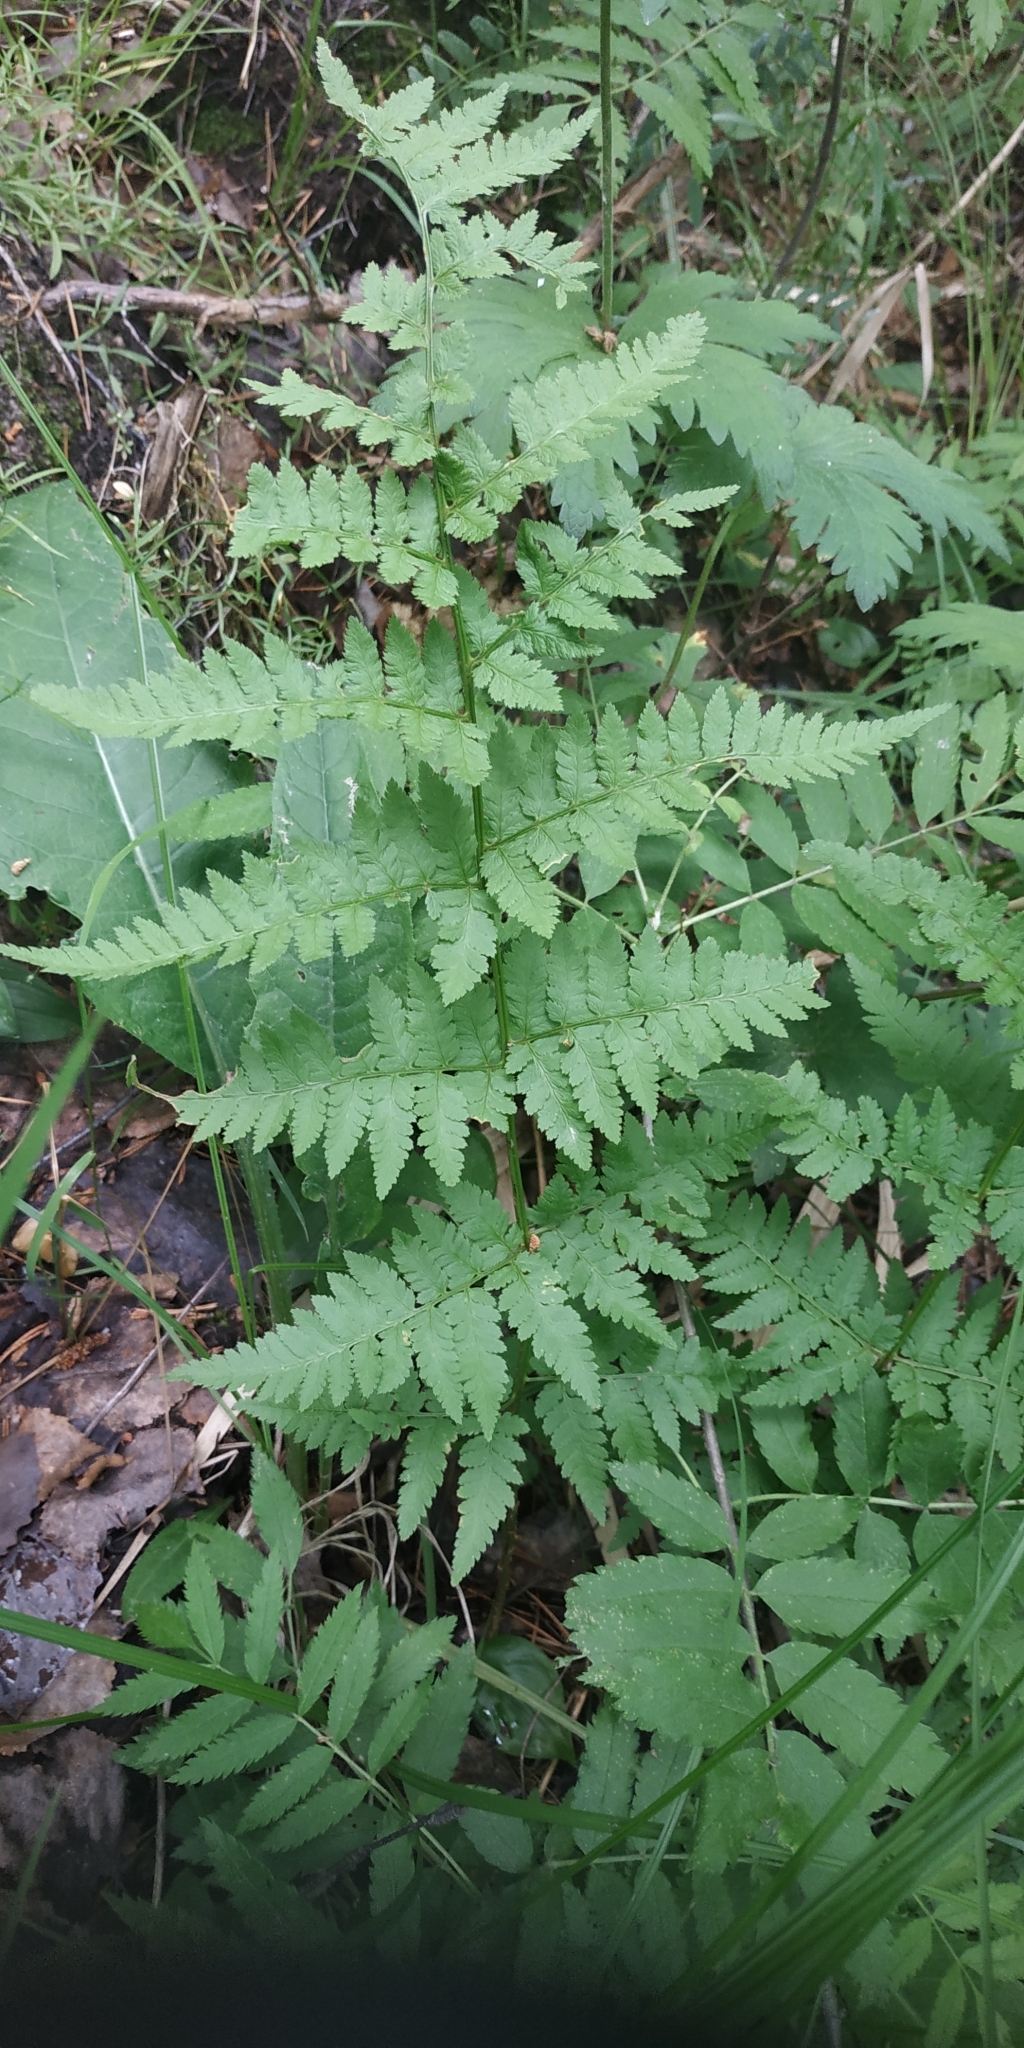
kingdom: Plantae
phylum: Tracheophyta
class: Polypodiopsida
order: Polypodiales
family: Dryopteridaceae
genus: Dryopteris
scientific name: Dryopteris carthusiana
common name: Narrow buckler-fern
